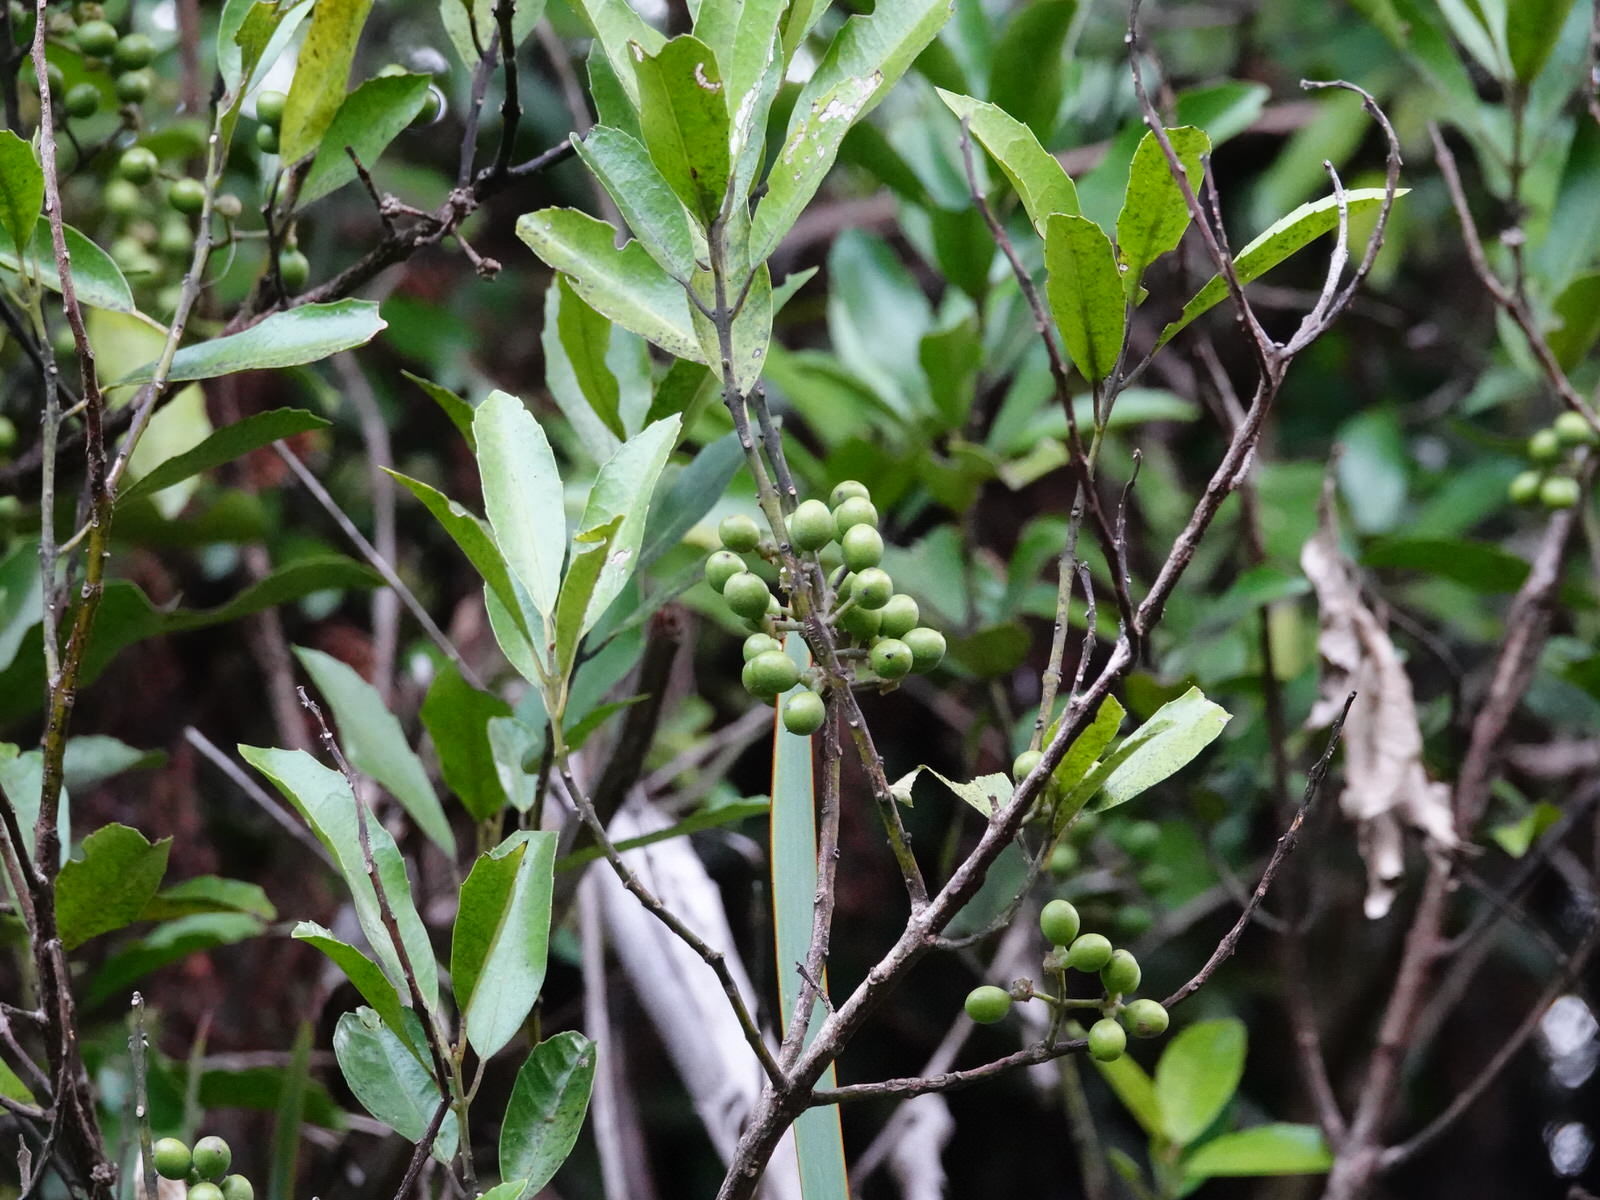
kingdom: Plantae
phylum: Tracheophyta
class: Magnoliopsida
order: Laurales
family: Monimiaceae
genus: Hedycarya
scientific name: Hedycarya arborea
